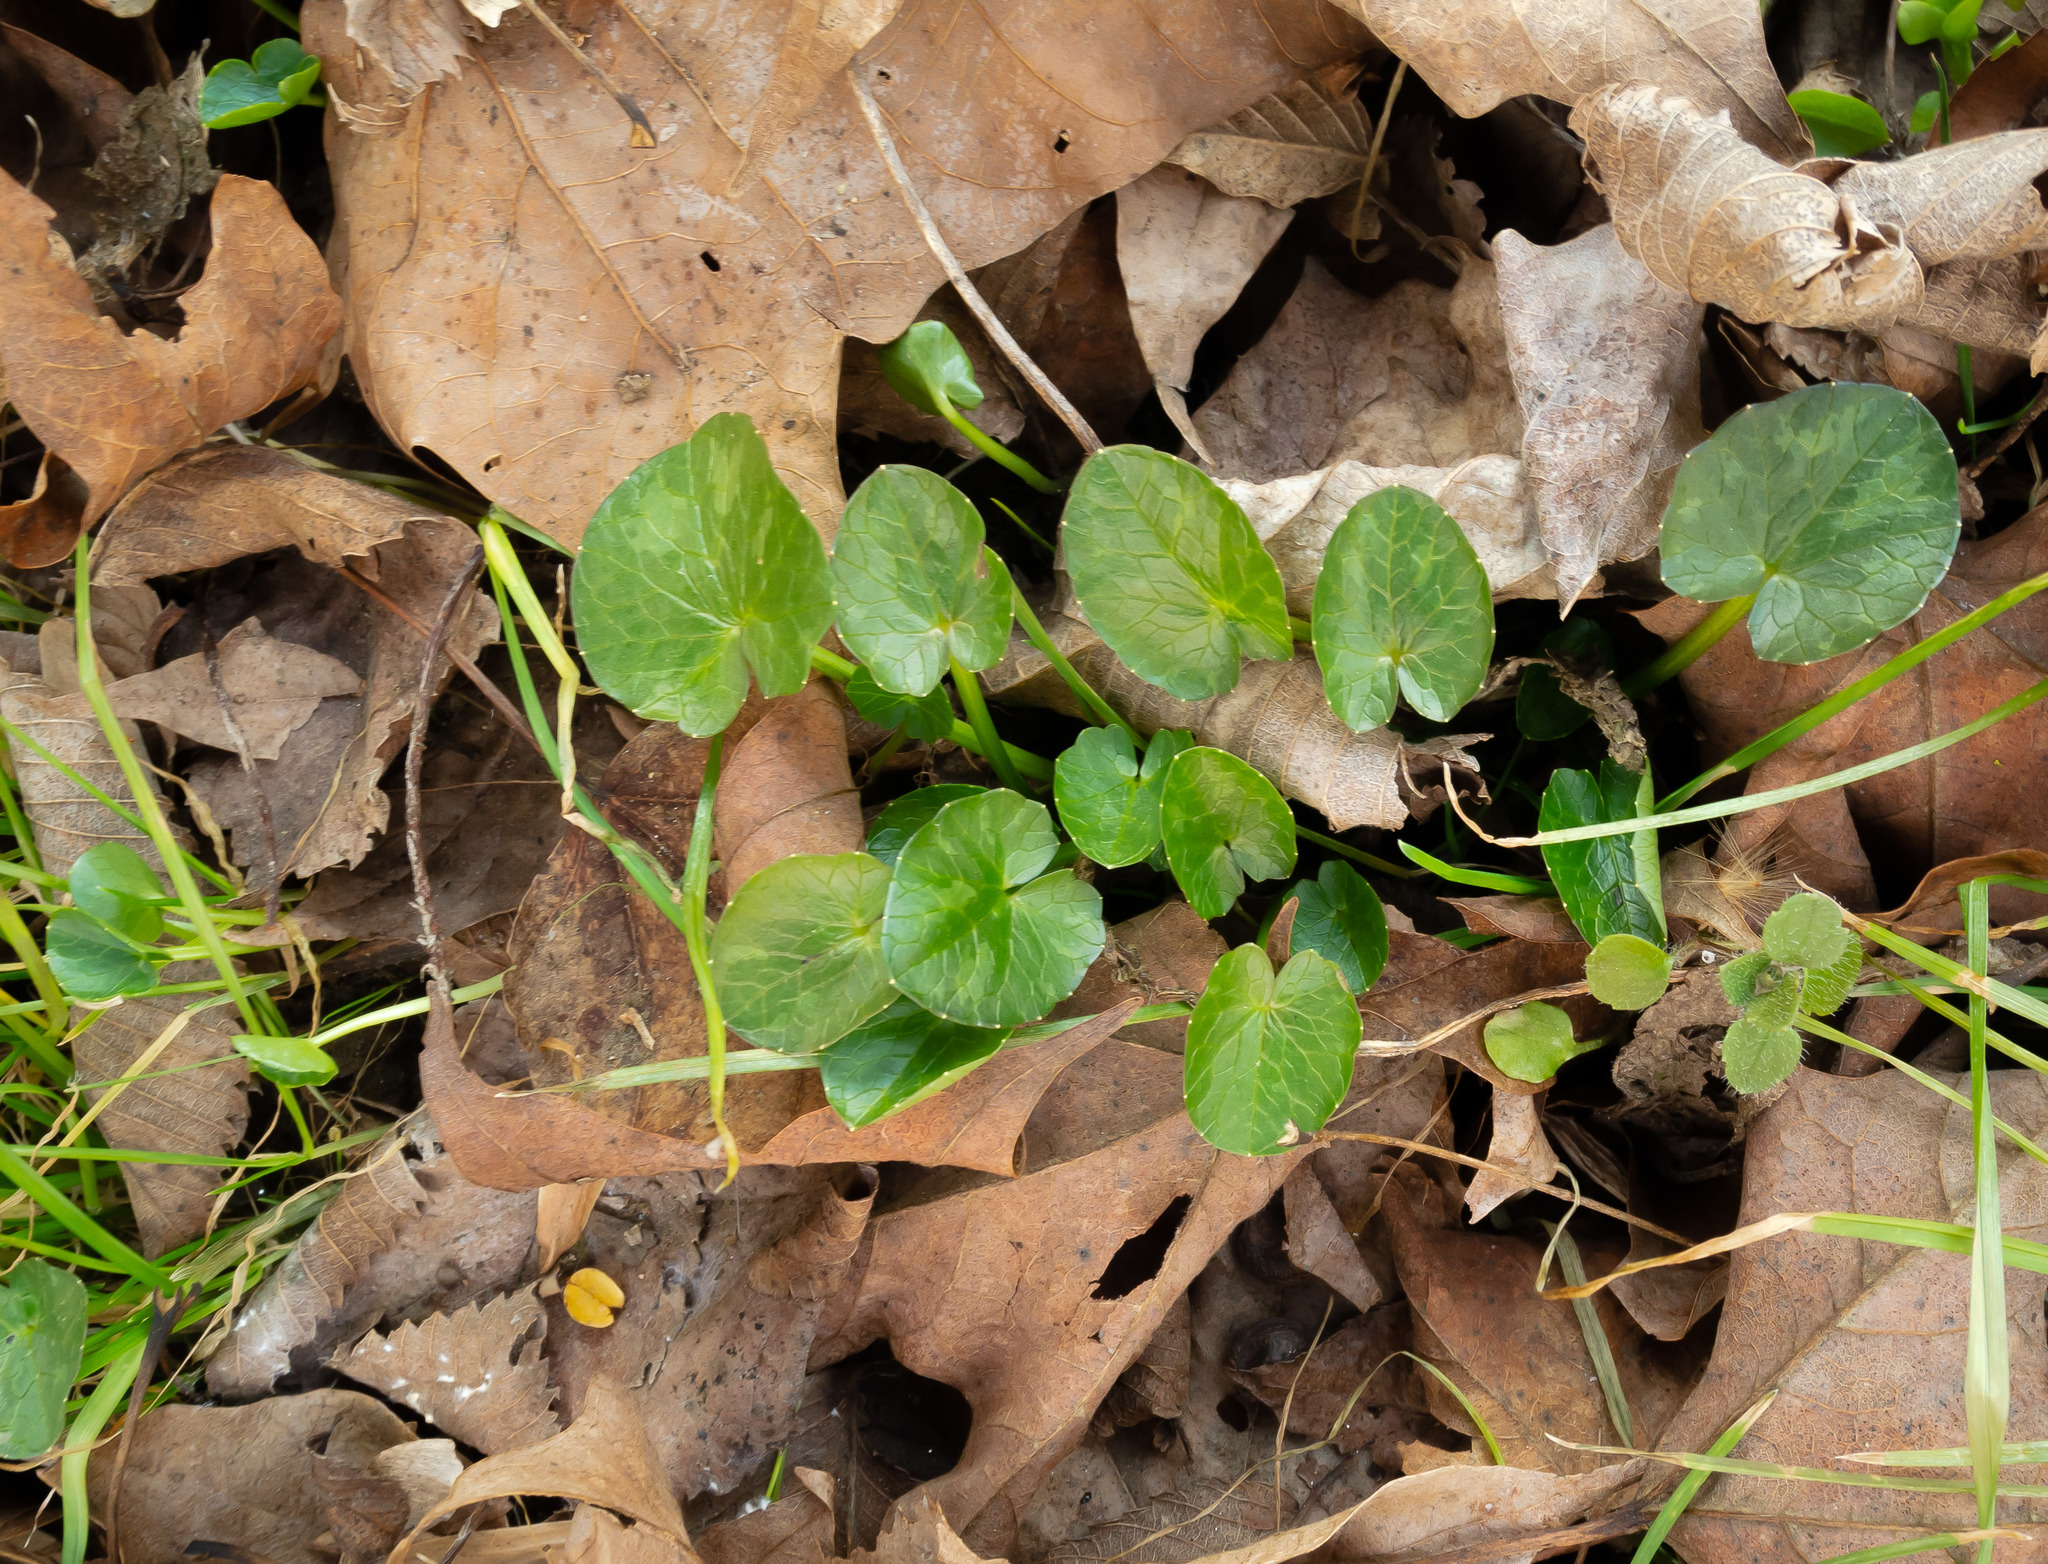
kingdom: Plantae
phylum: Tracheophyta
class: Magnoliopsida
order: Ranunculales
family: Ranunculaceae
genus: Ficaria
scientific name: Ficaria verna
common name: Lesser celandine
